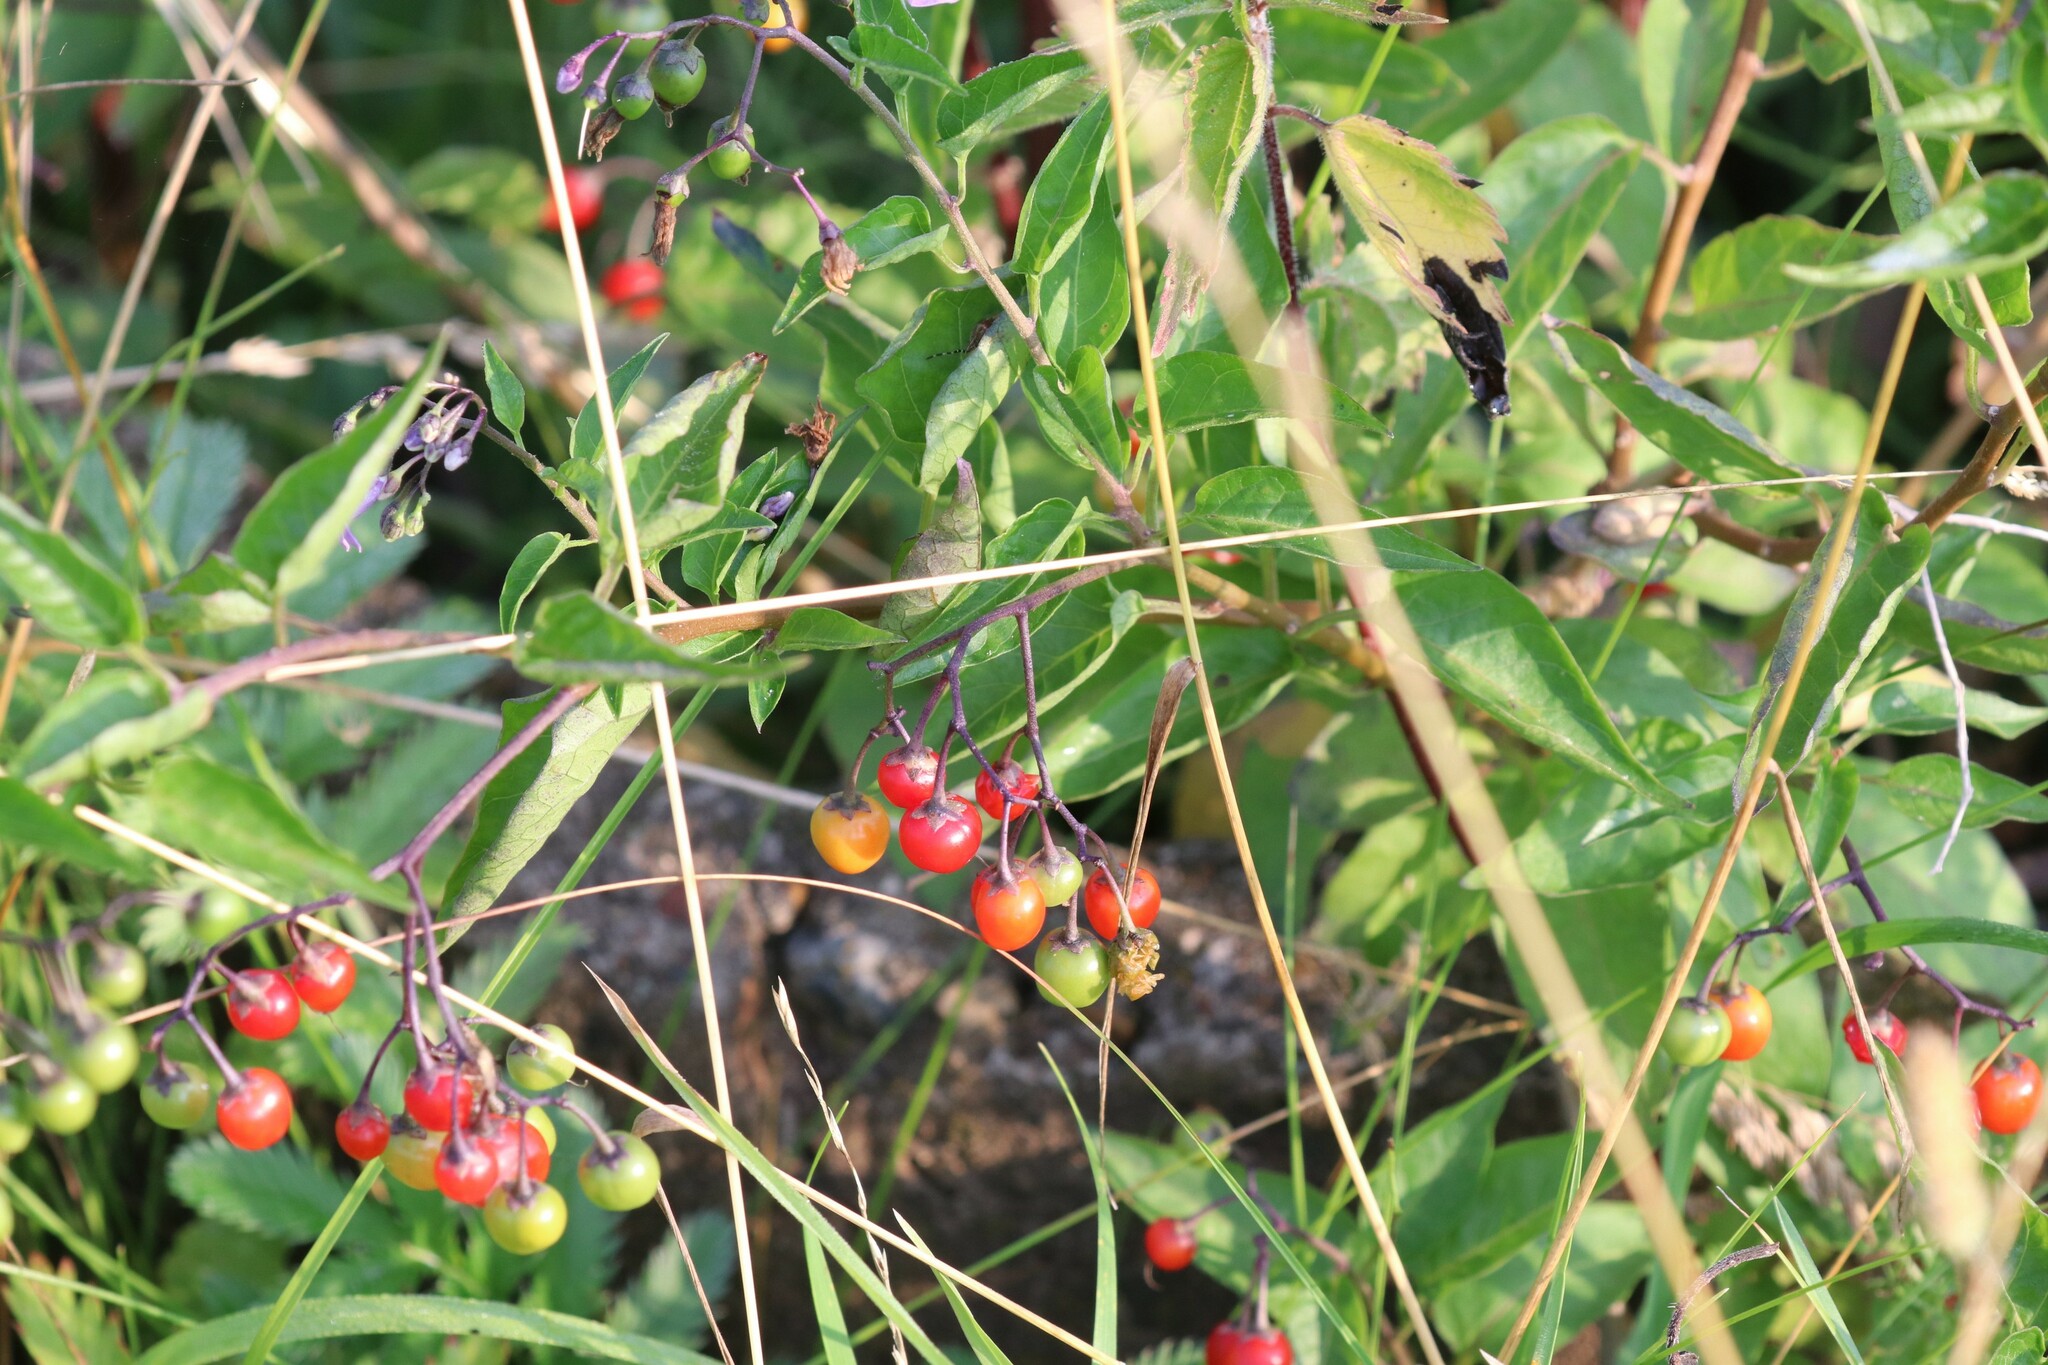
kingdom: Plantae
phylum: Tracheophyta
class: Magnoliopsida
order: Solanales
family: Solanaceae
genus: Solanum
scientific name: Solanum dulcamara
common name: Climbing nightshade
